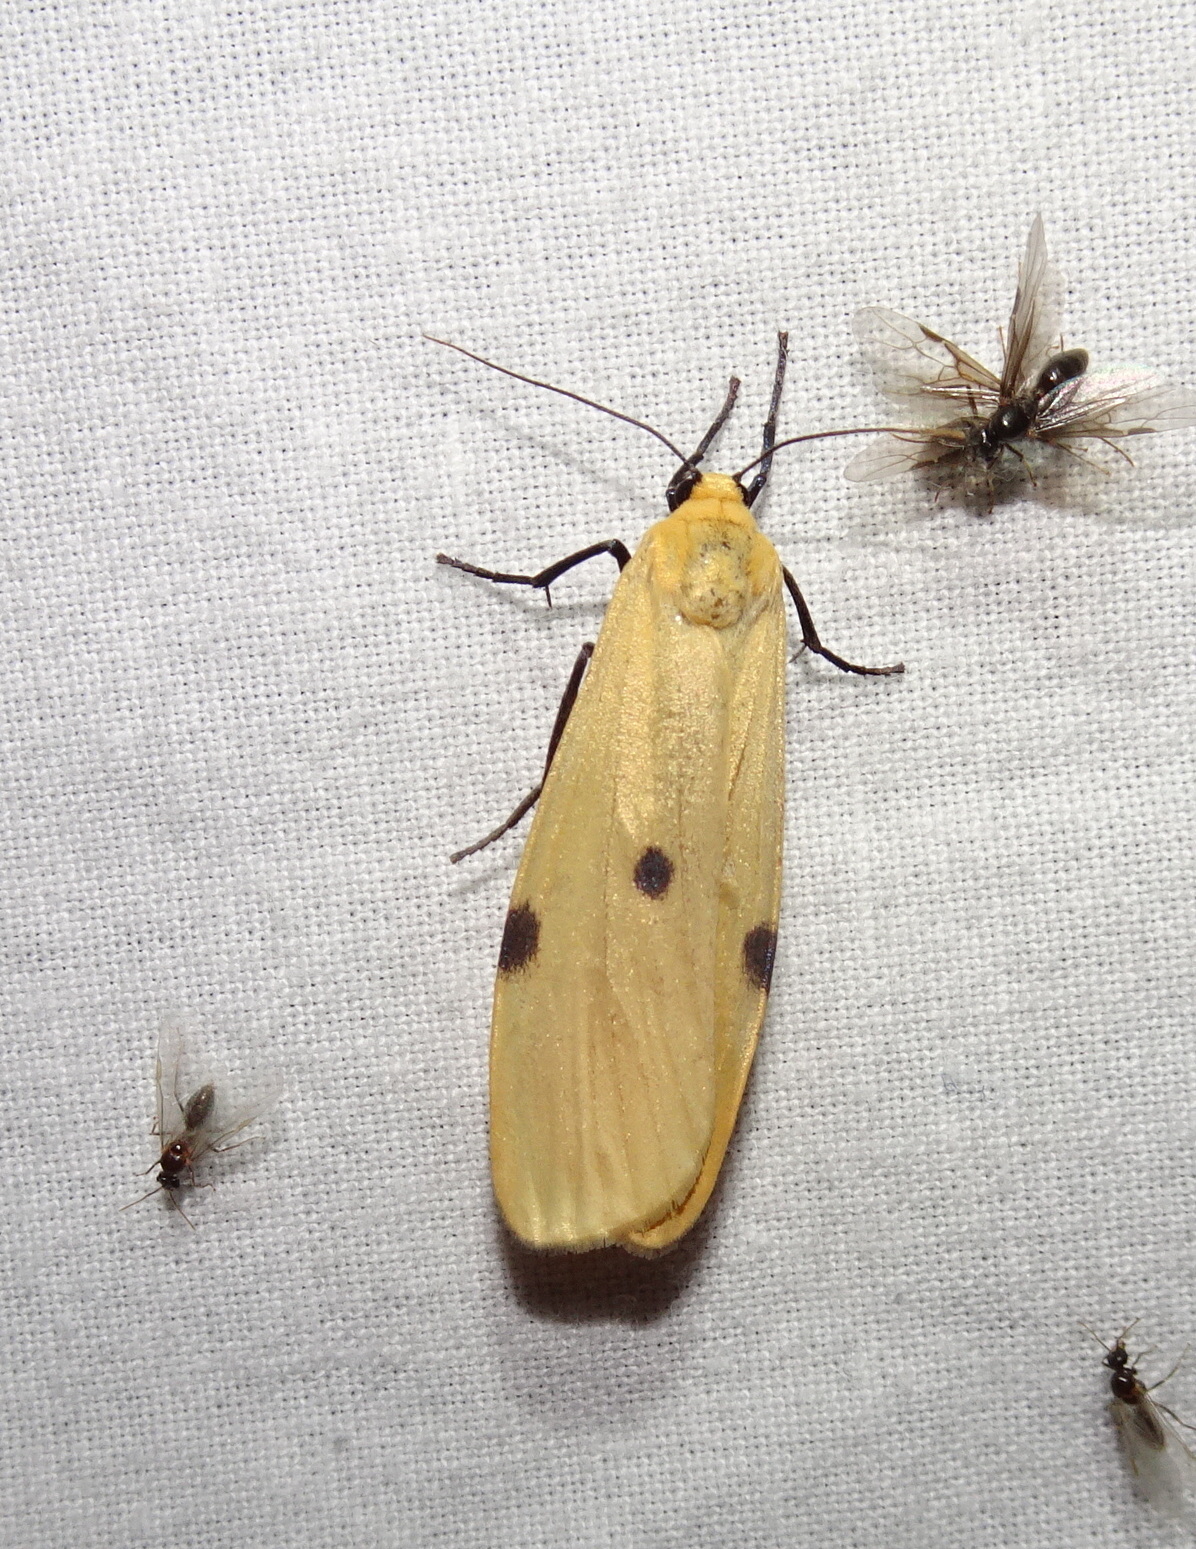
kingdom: Animalia
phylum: Arthropoda
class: Insecta
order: Lepidoptera
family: Erebidae
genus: Lithosia
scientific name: Lithosia quadra
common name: Four-spotted footman
